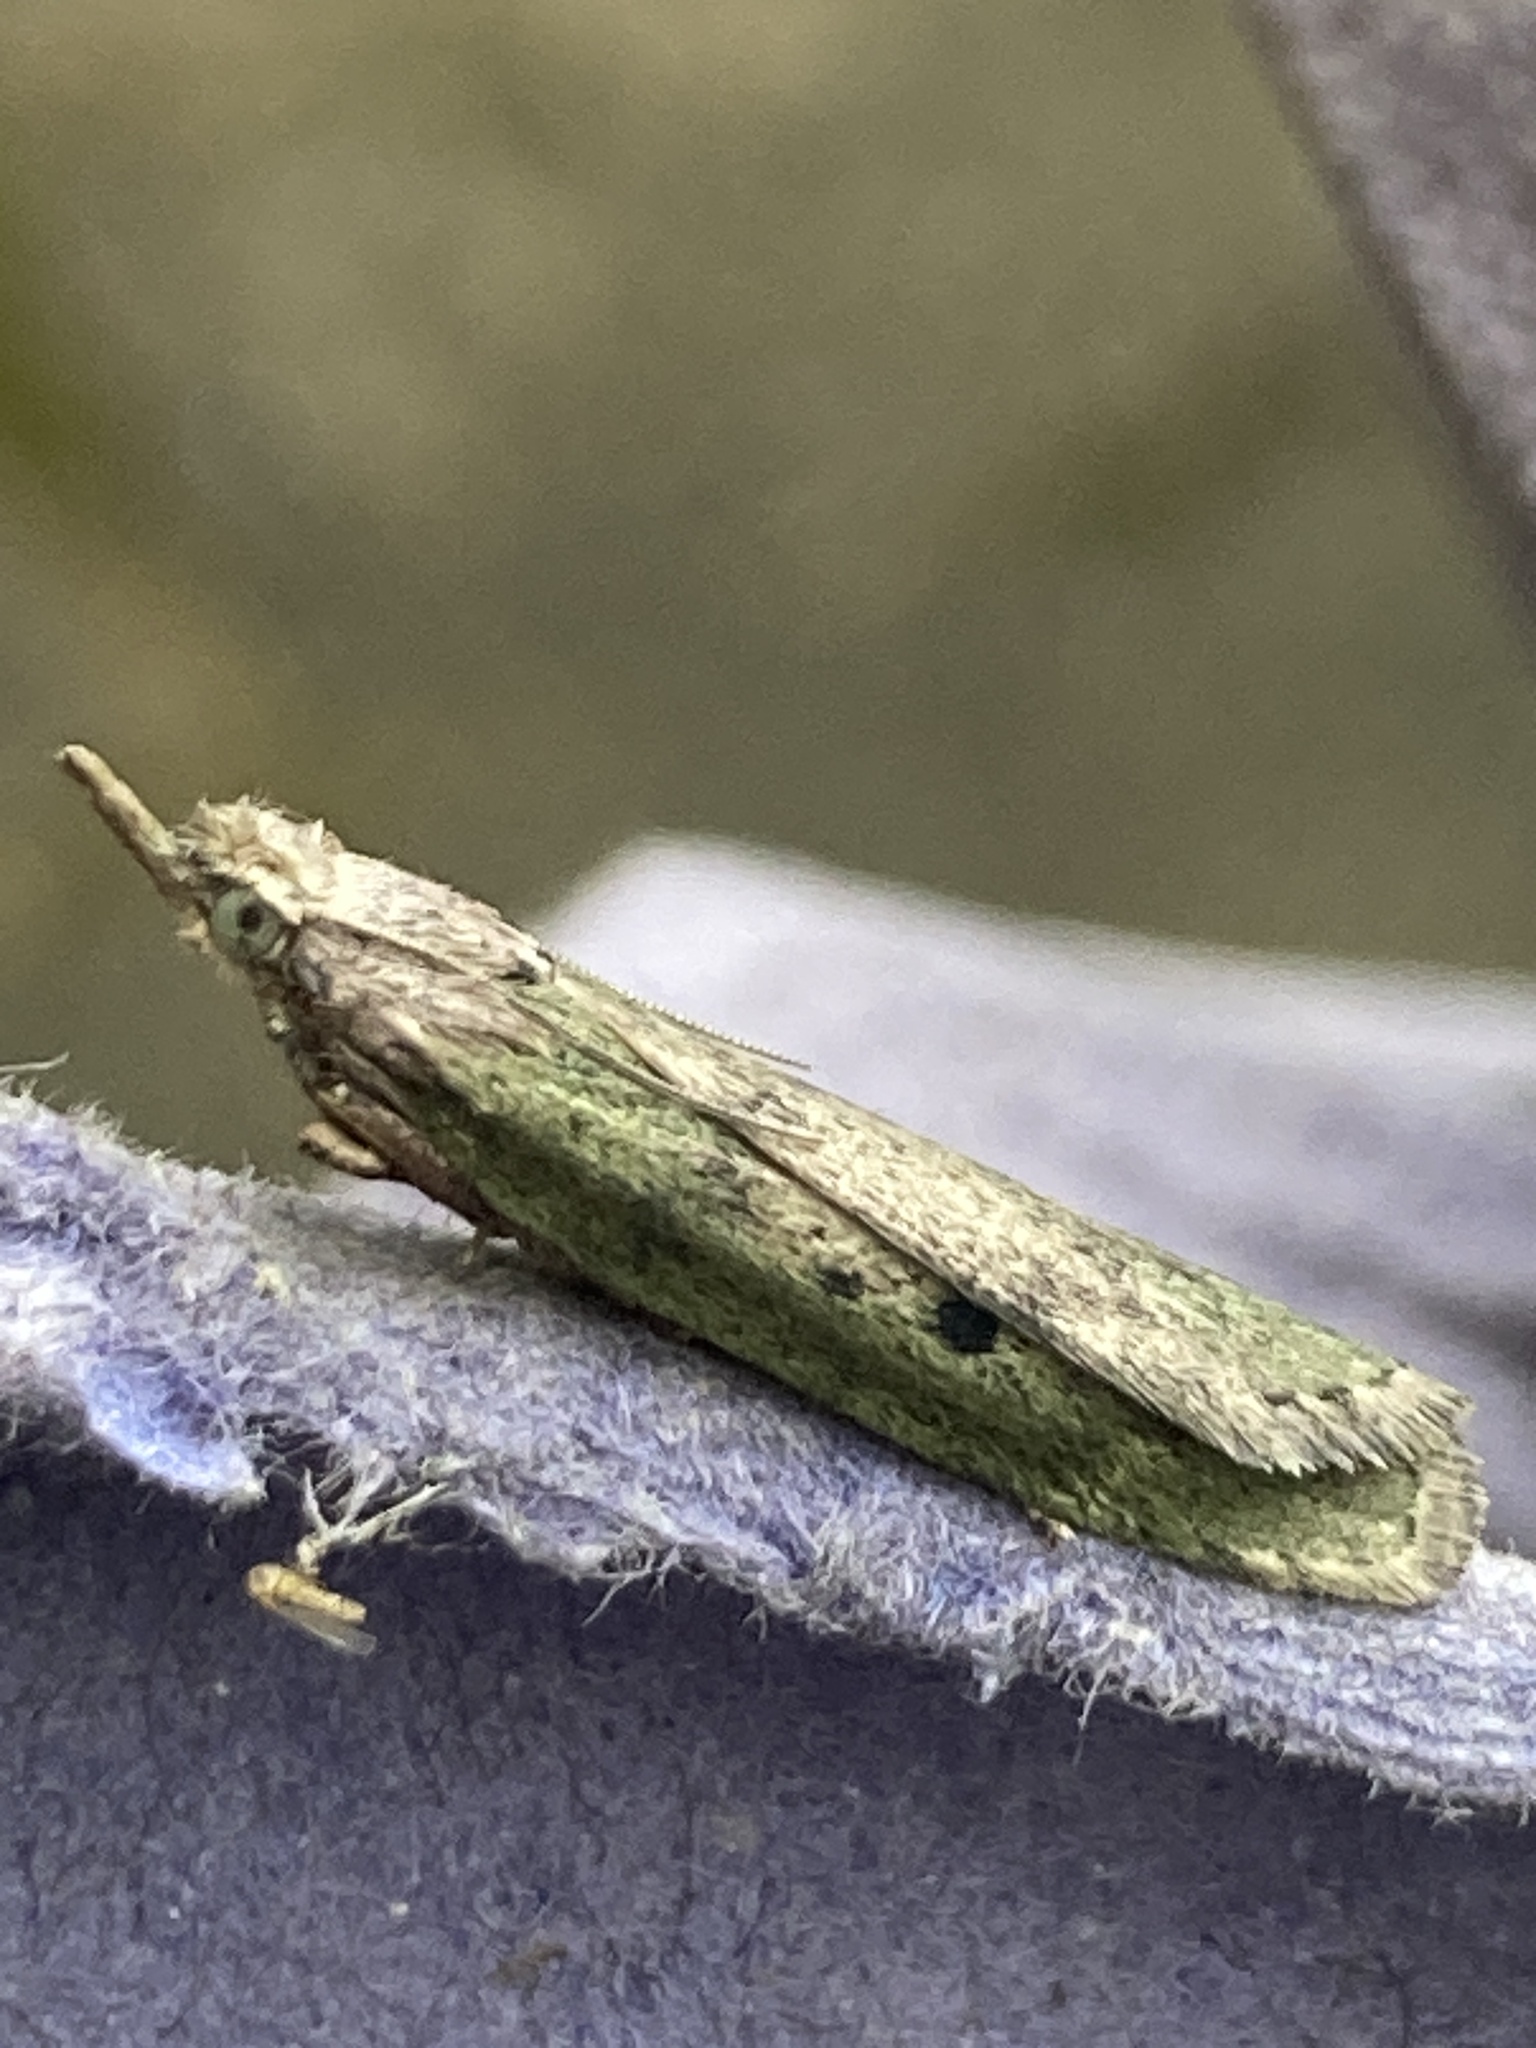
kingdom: Animalia
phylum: Arthropoda
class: Insecta
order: Lepidoptera
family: Pyralidae
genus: Aphomia
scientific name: Aphomia sociella
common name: Bee moth
